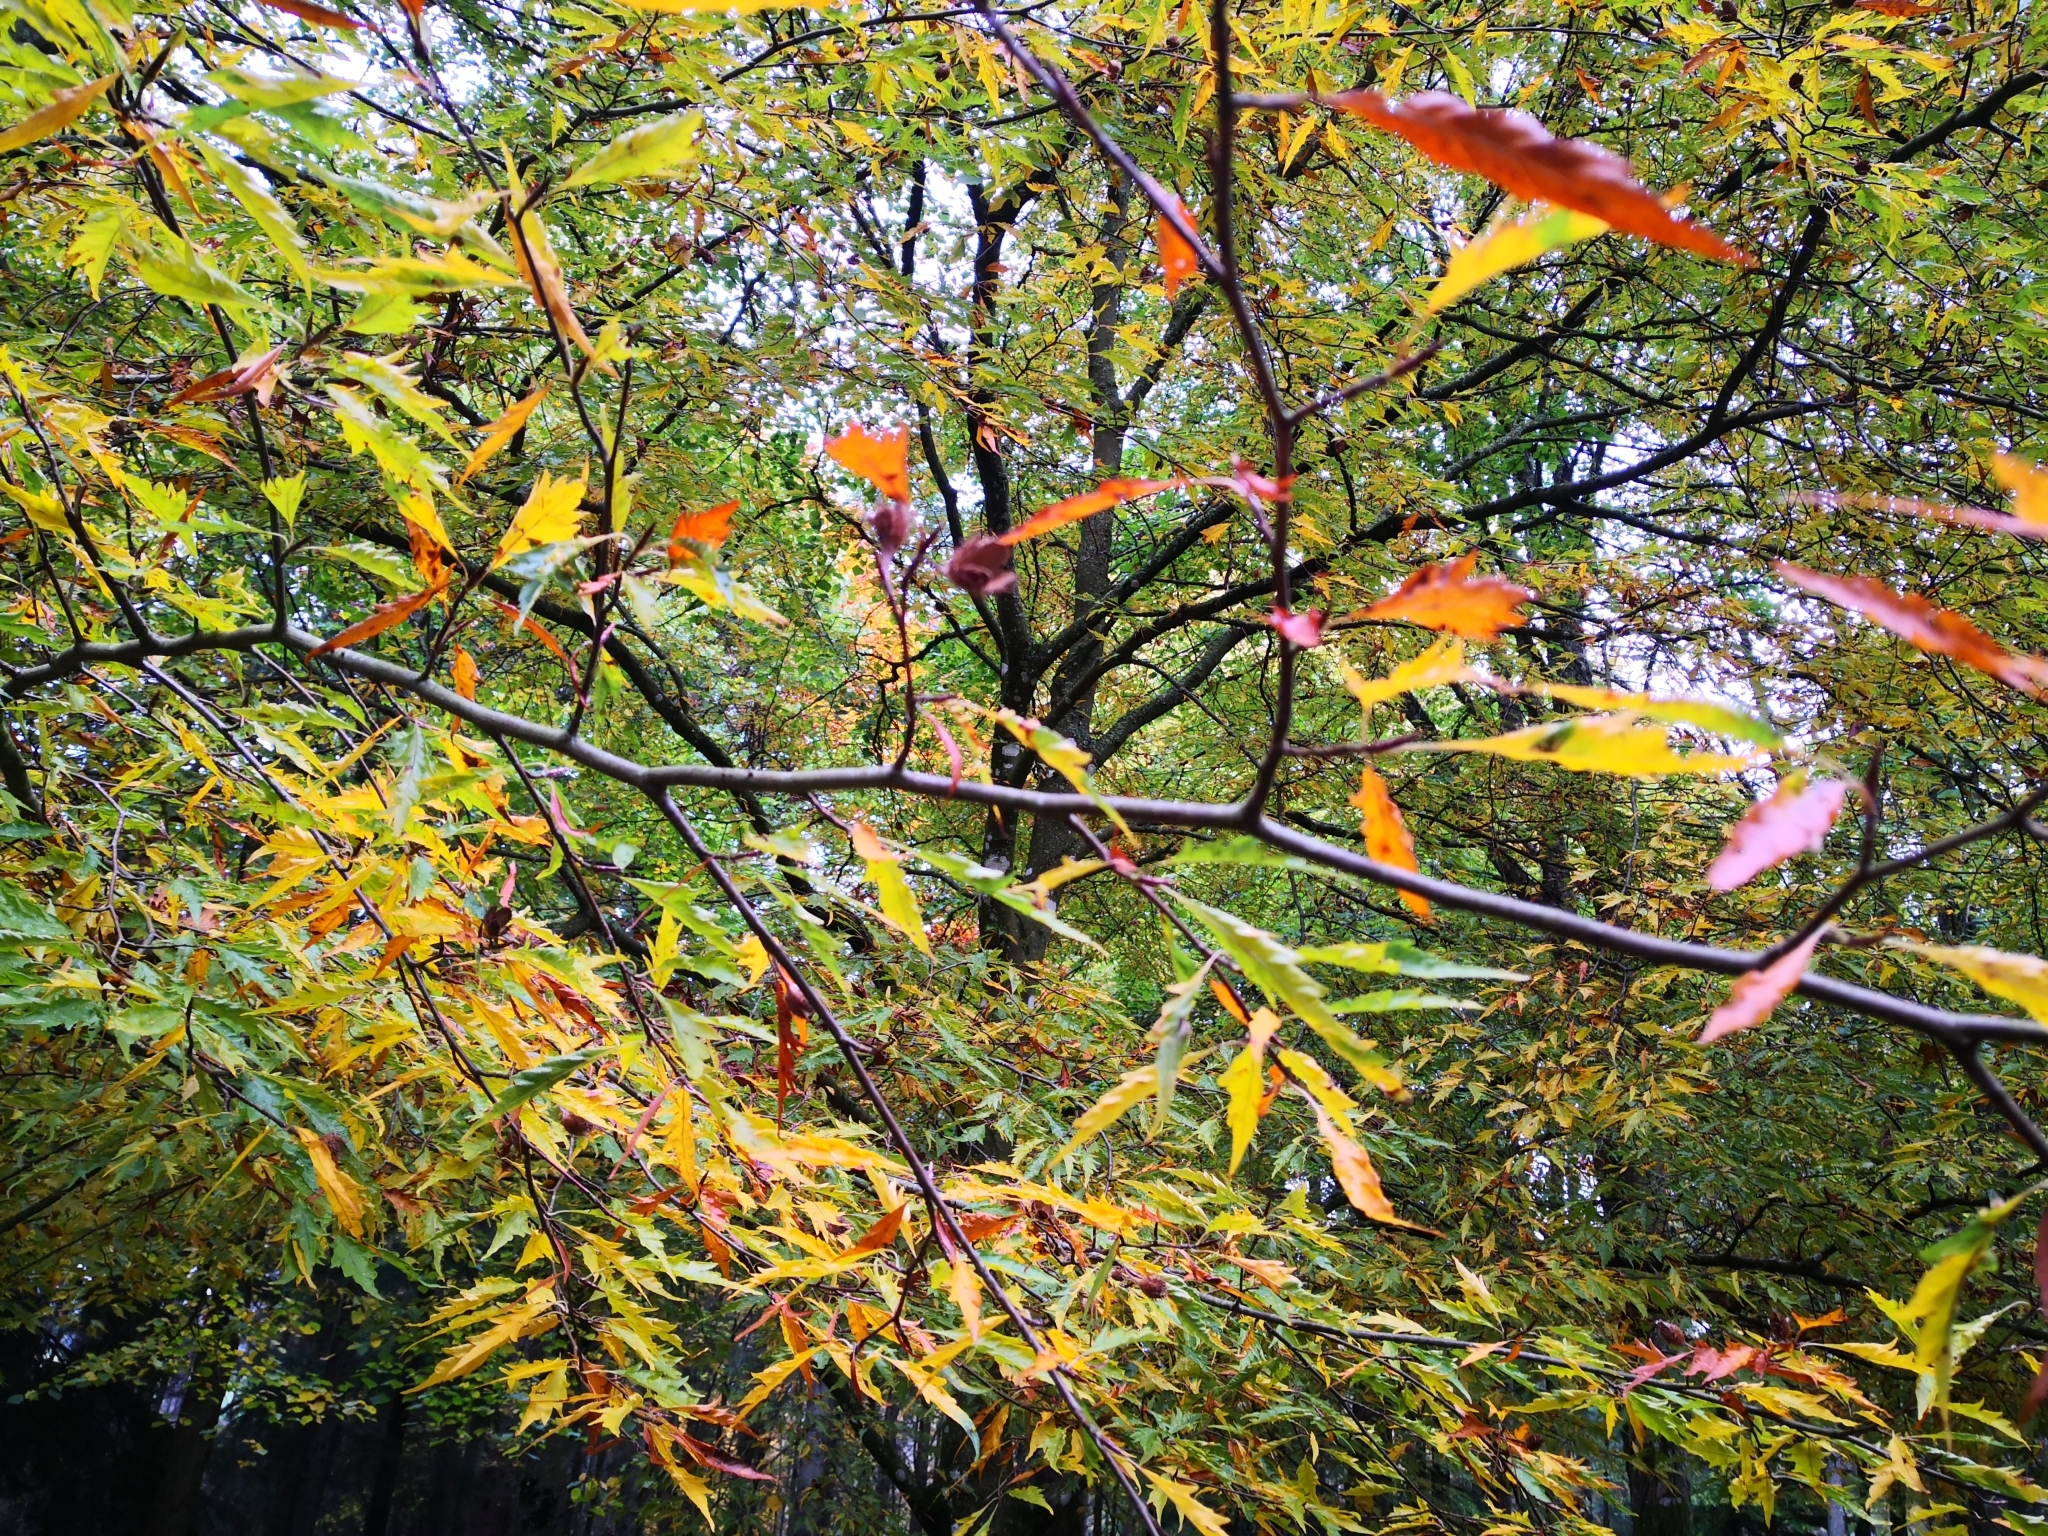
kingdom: Plantae
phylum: Tracheophyta
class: Magnoliopsida
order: Fagales
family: Fagaceae
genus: Castanea
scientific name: Castanea sativa
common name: Sweet chestnut
